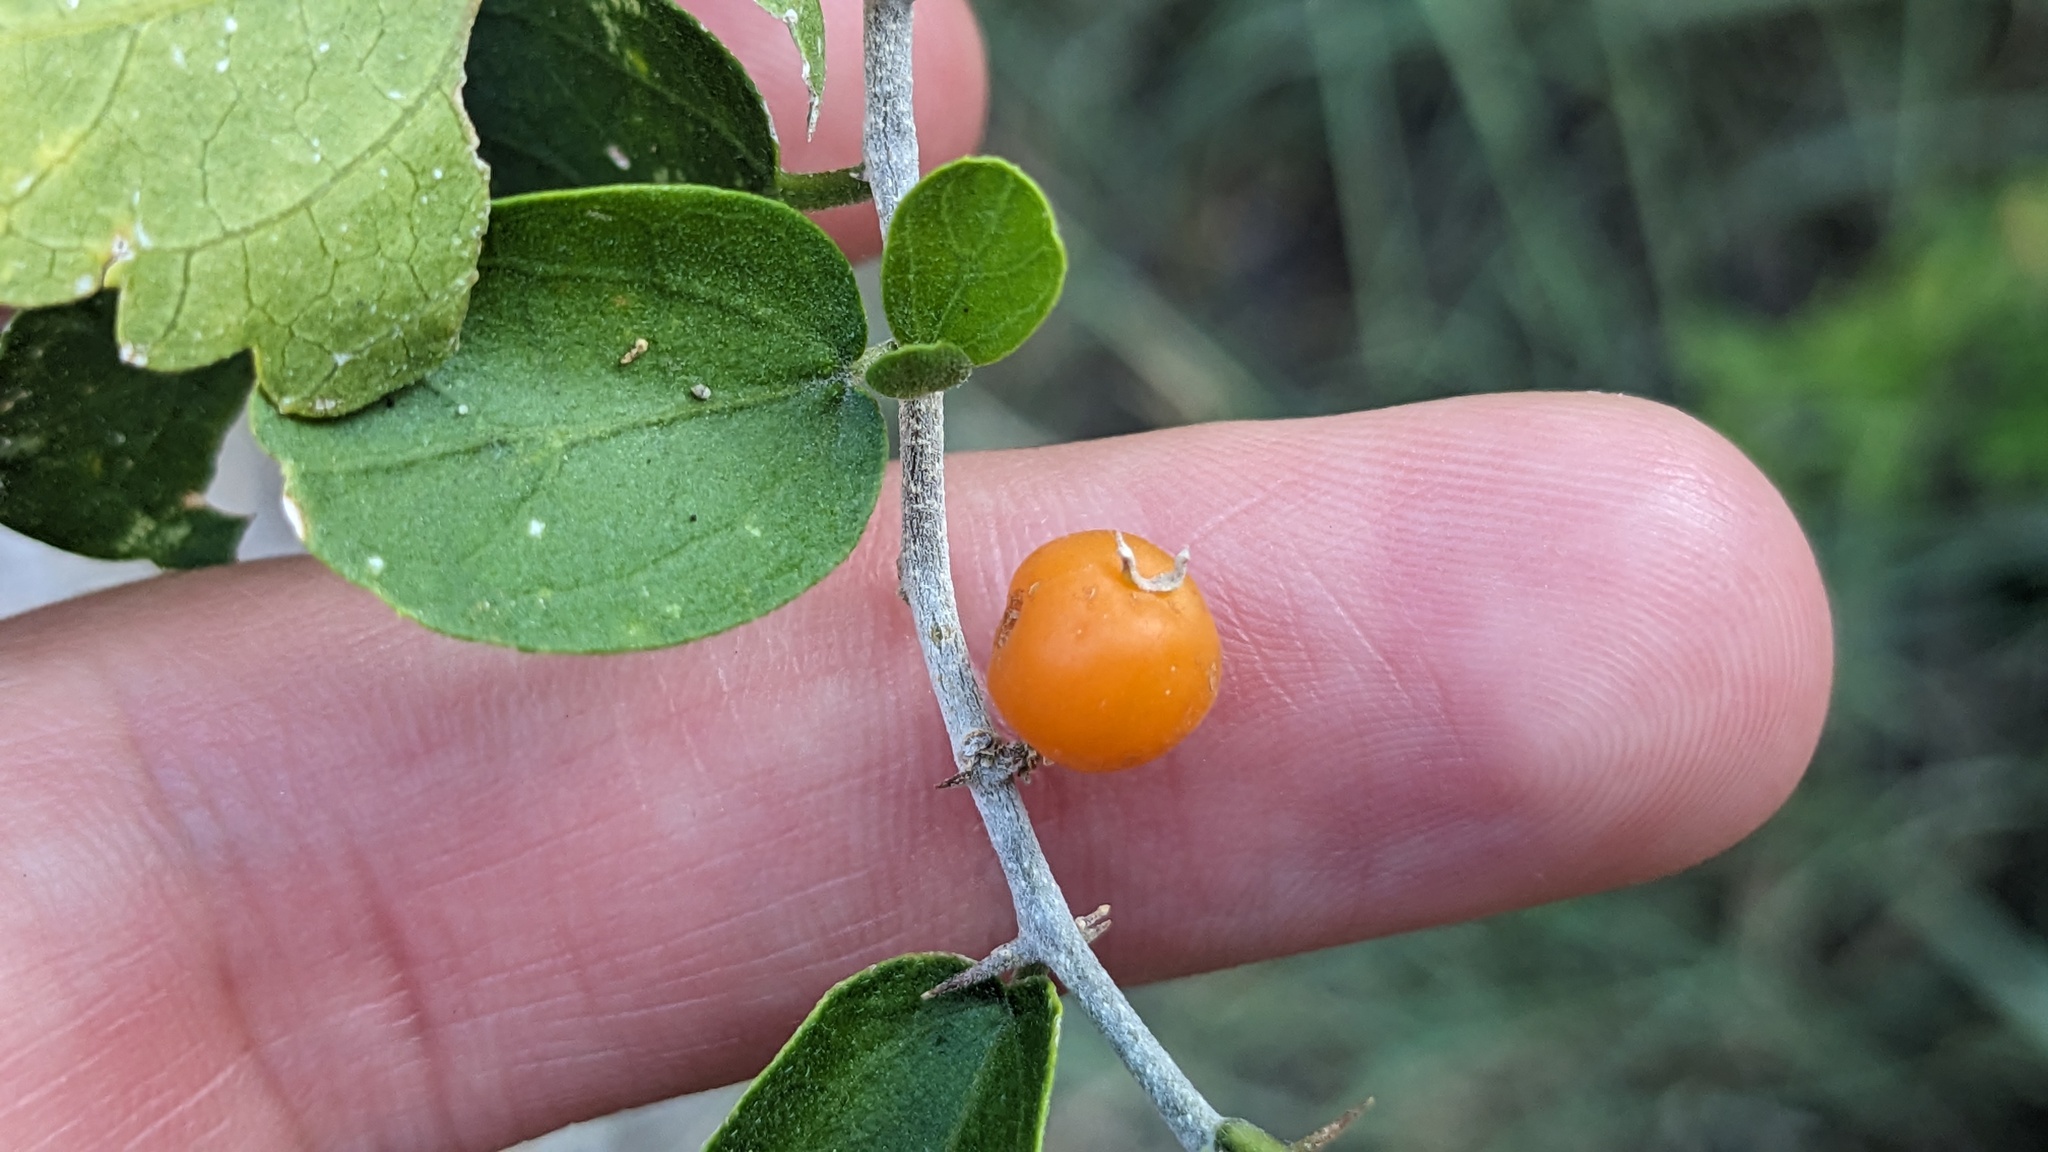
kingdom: Plantae
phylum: Tracheophyta
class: Magnoliopsida
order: Rosales
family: Cannabaceae
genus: Celtis
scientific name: Celtis pallida
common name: Desert hackberry
